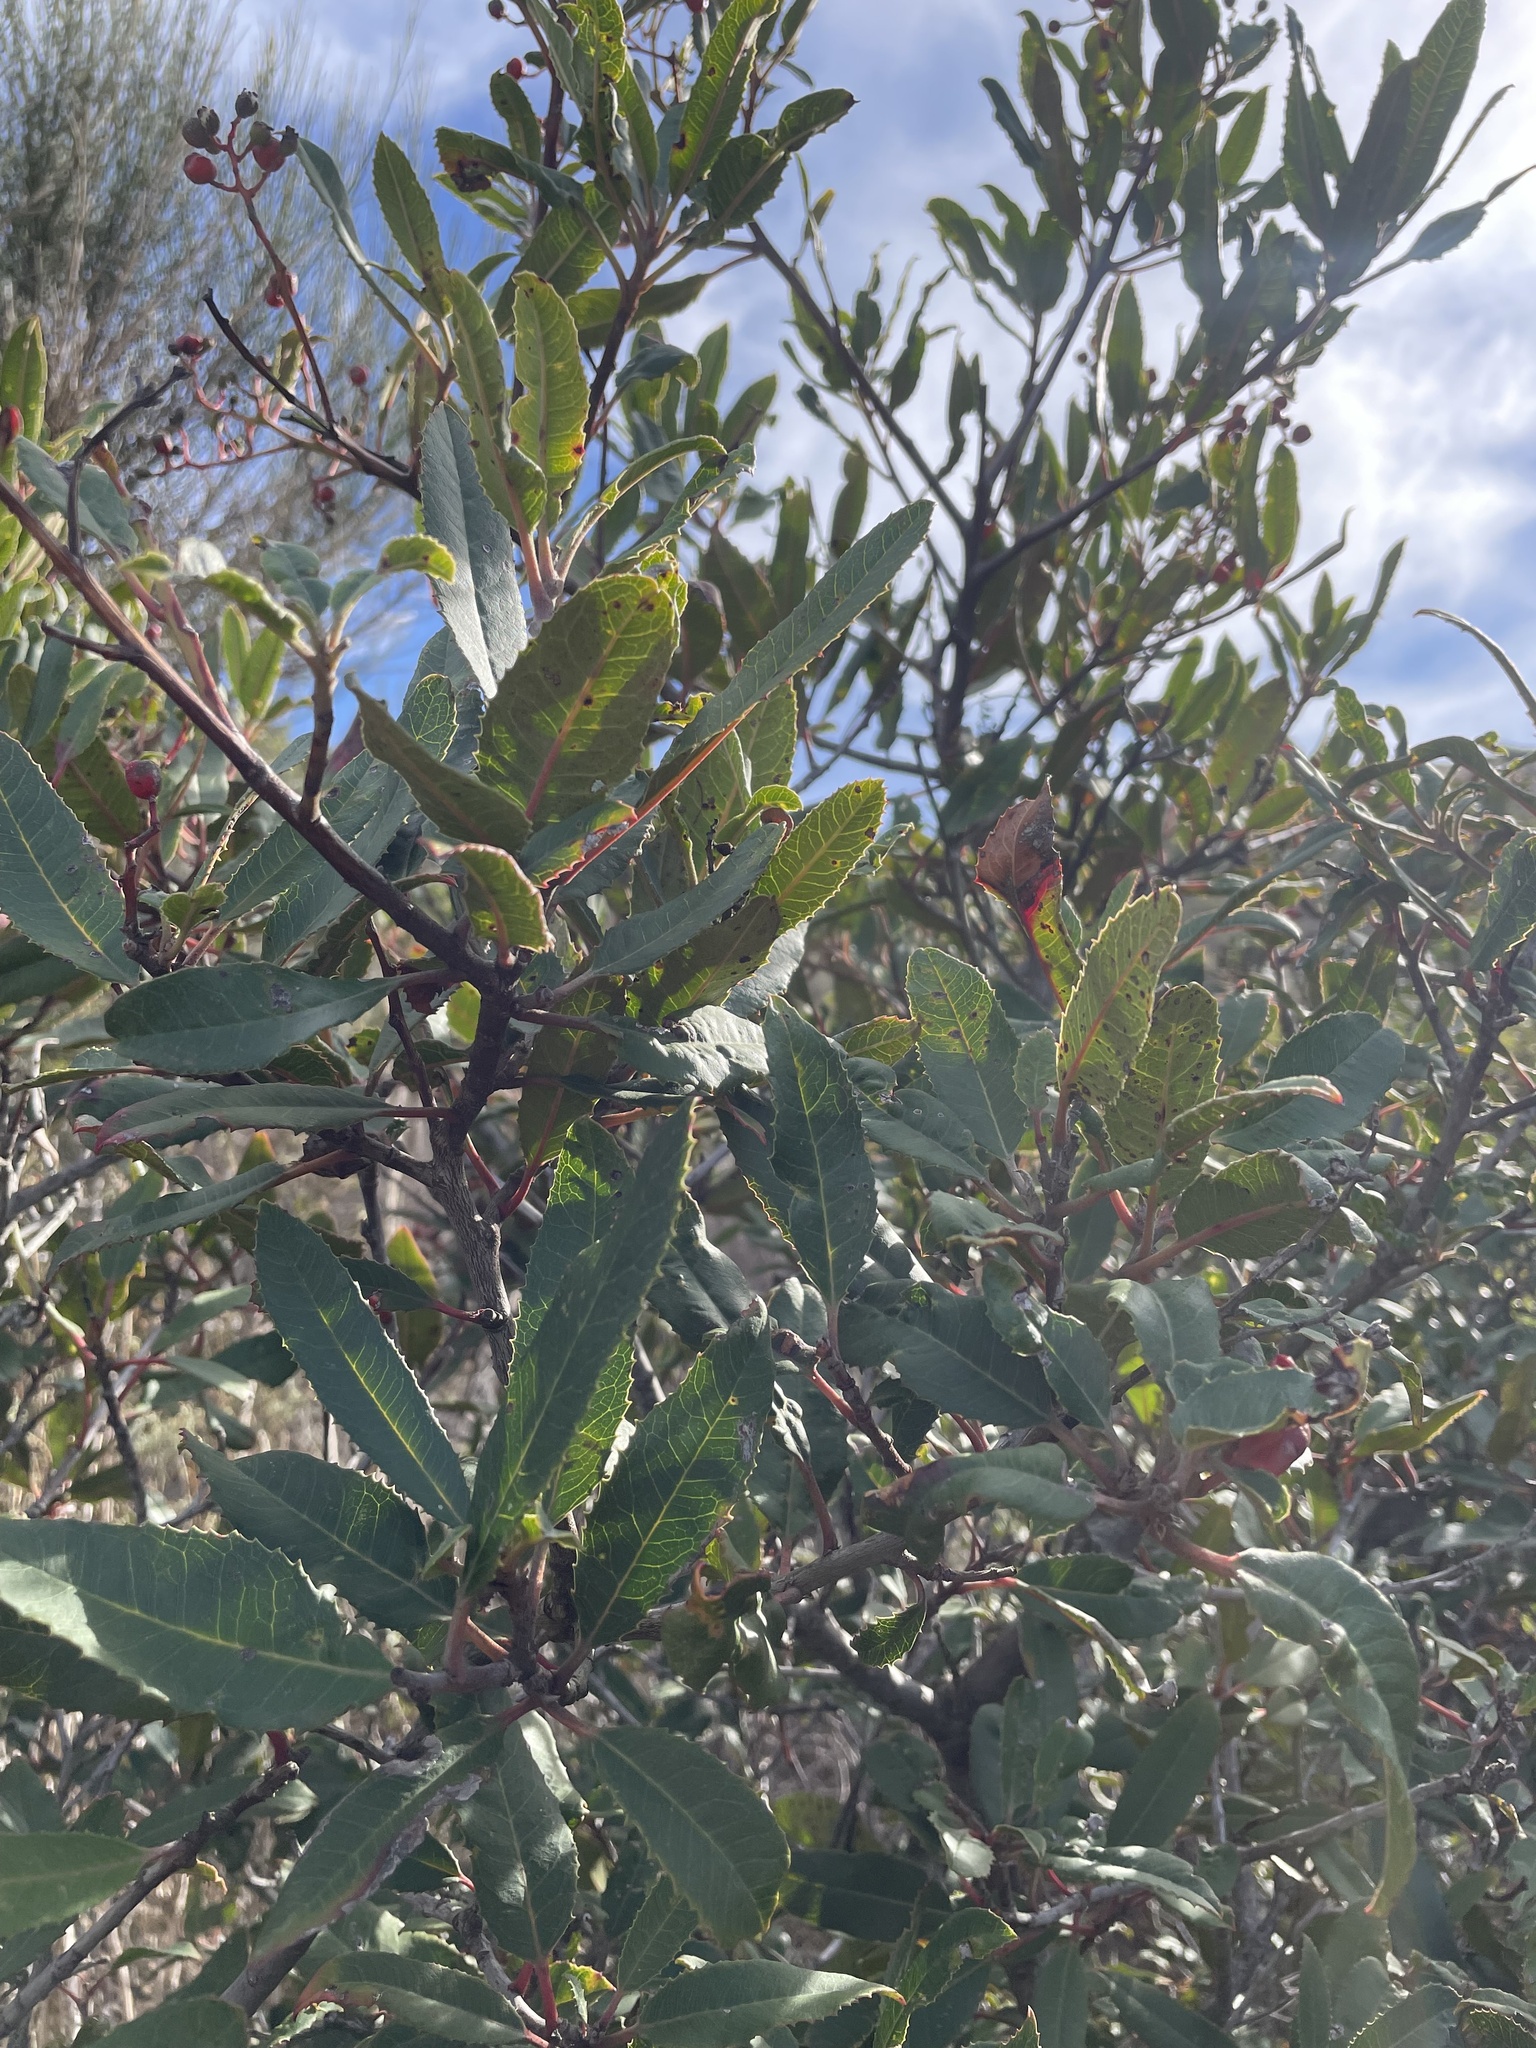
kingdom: Plantae
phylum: Tracheophyta
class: Magnoliopsida
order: Rosales
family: Rosaceae
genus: Heteromeles
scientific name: Heteromeles arbutifolia
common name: California-holly
